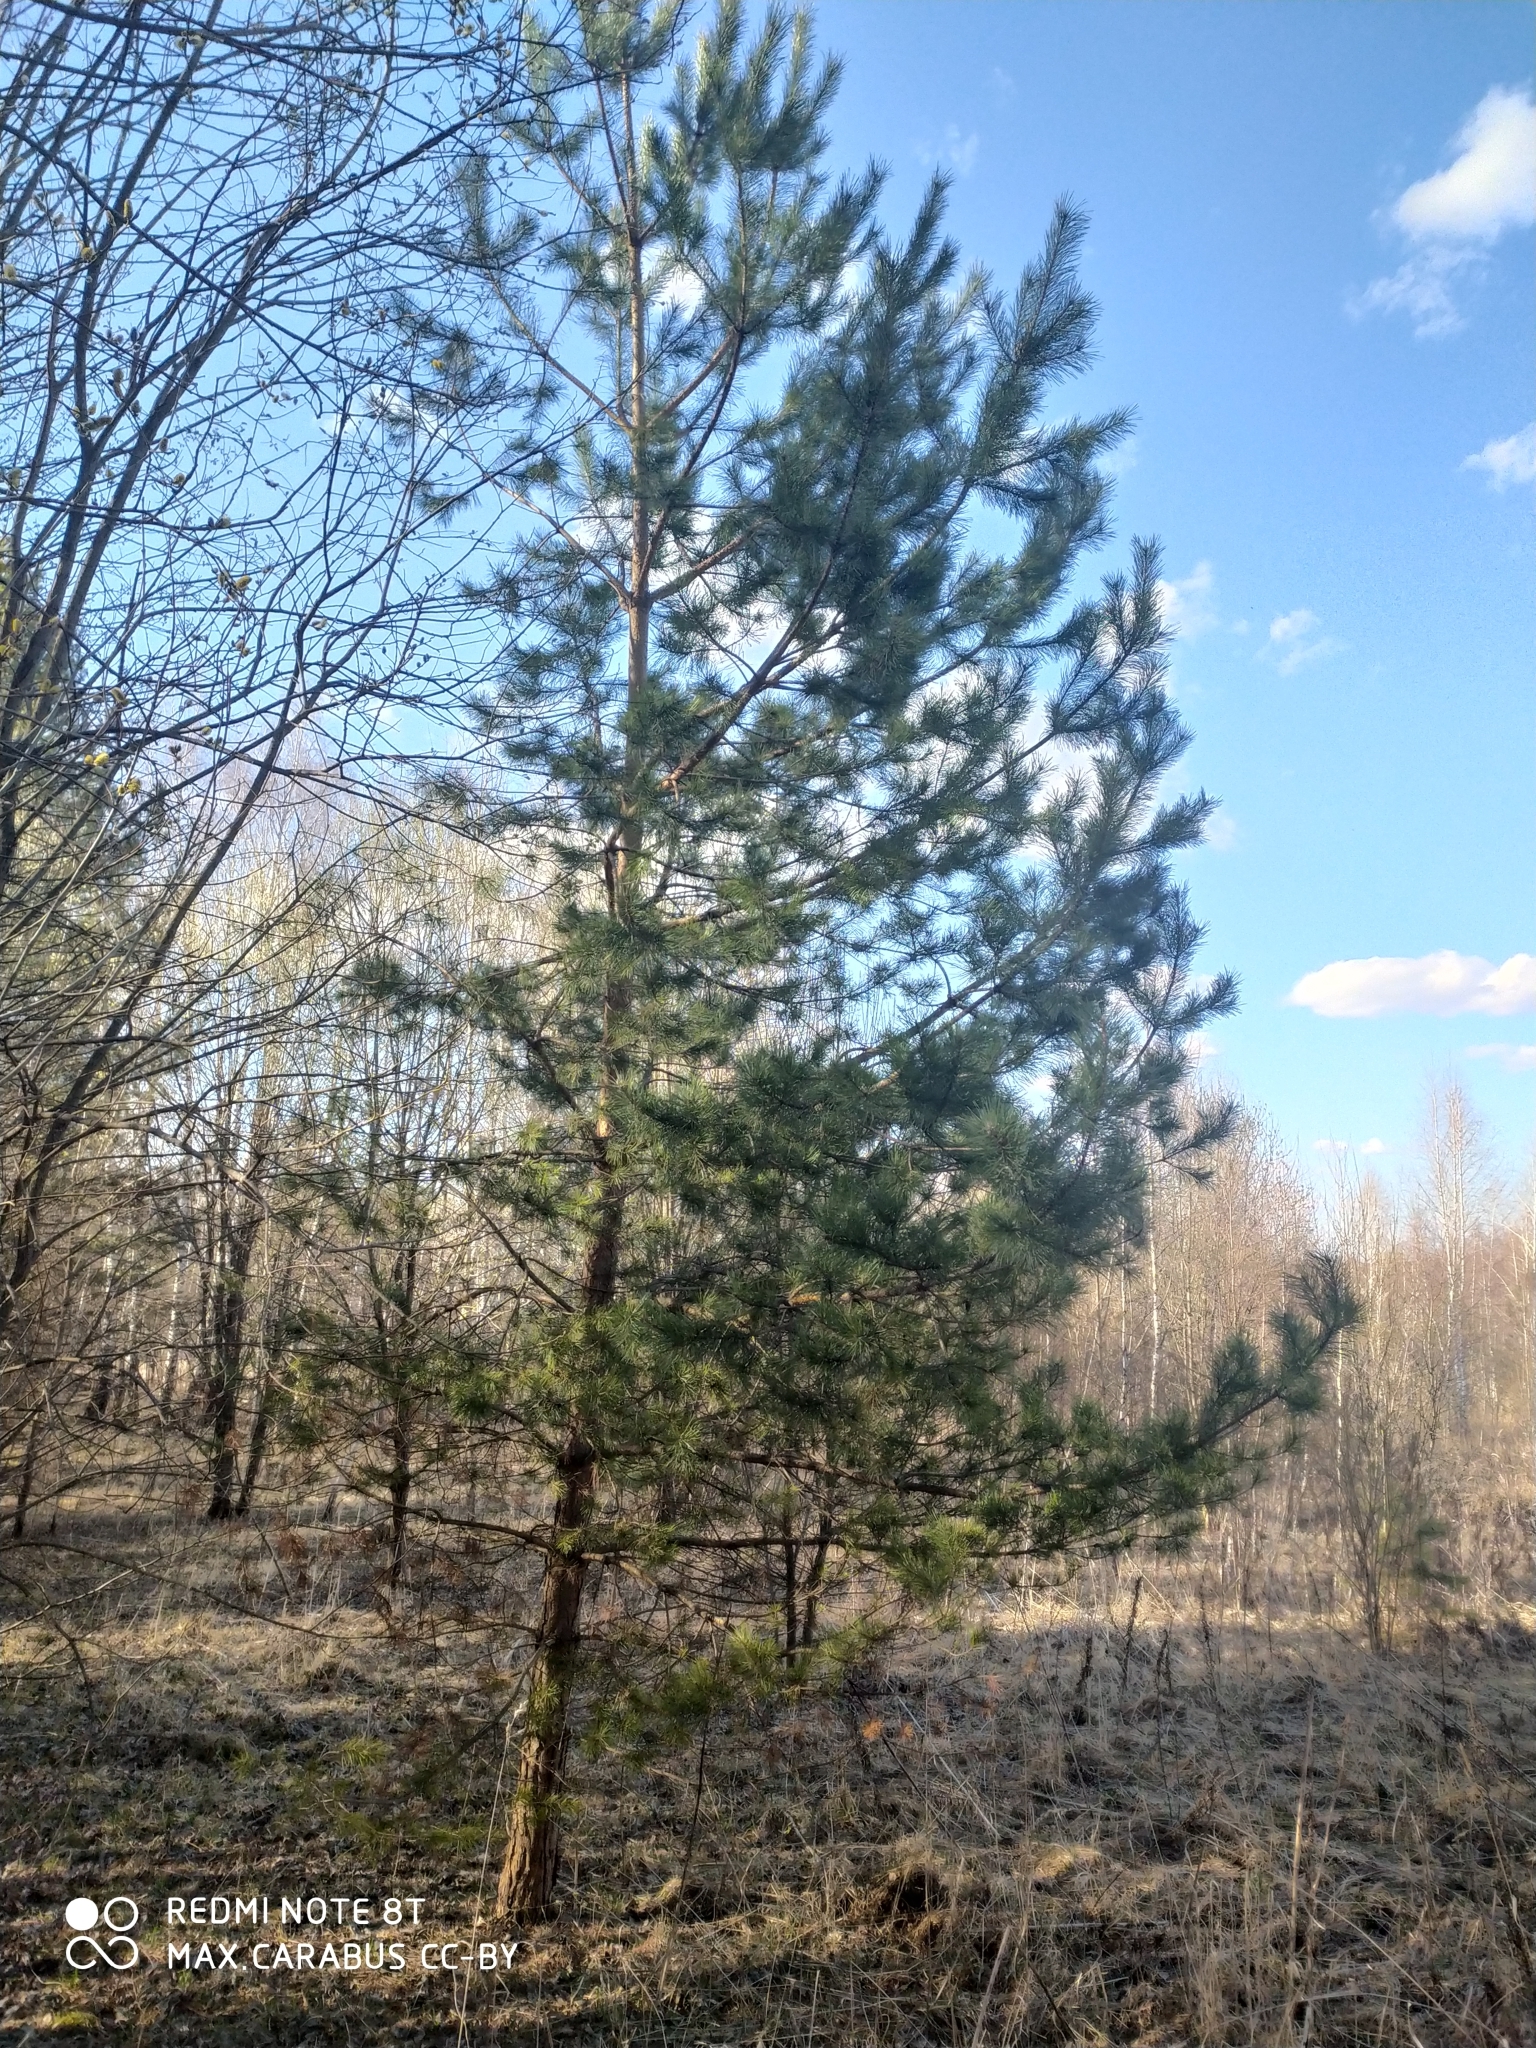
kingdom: Plantae
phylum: Tracheophyta
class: Pinopsida
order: Pinales
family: Pinaceae
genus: Pinus
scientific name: Pinus sylvestris
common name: Scots pine
